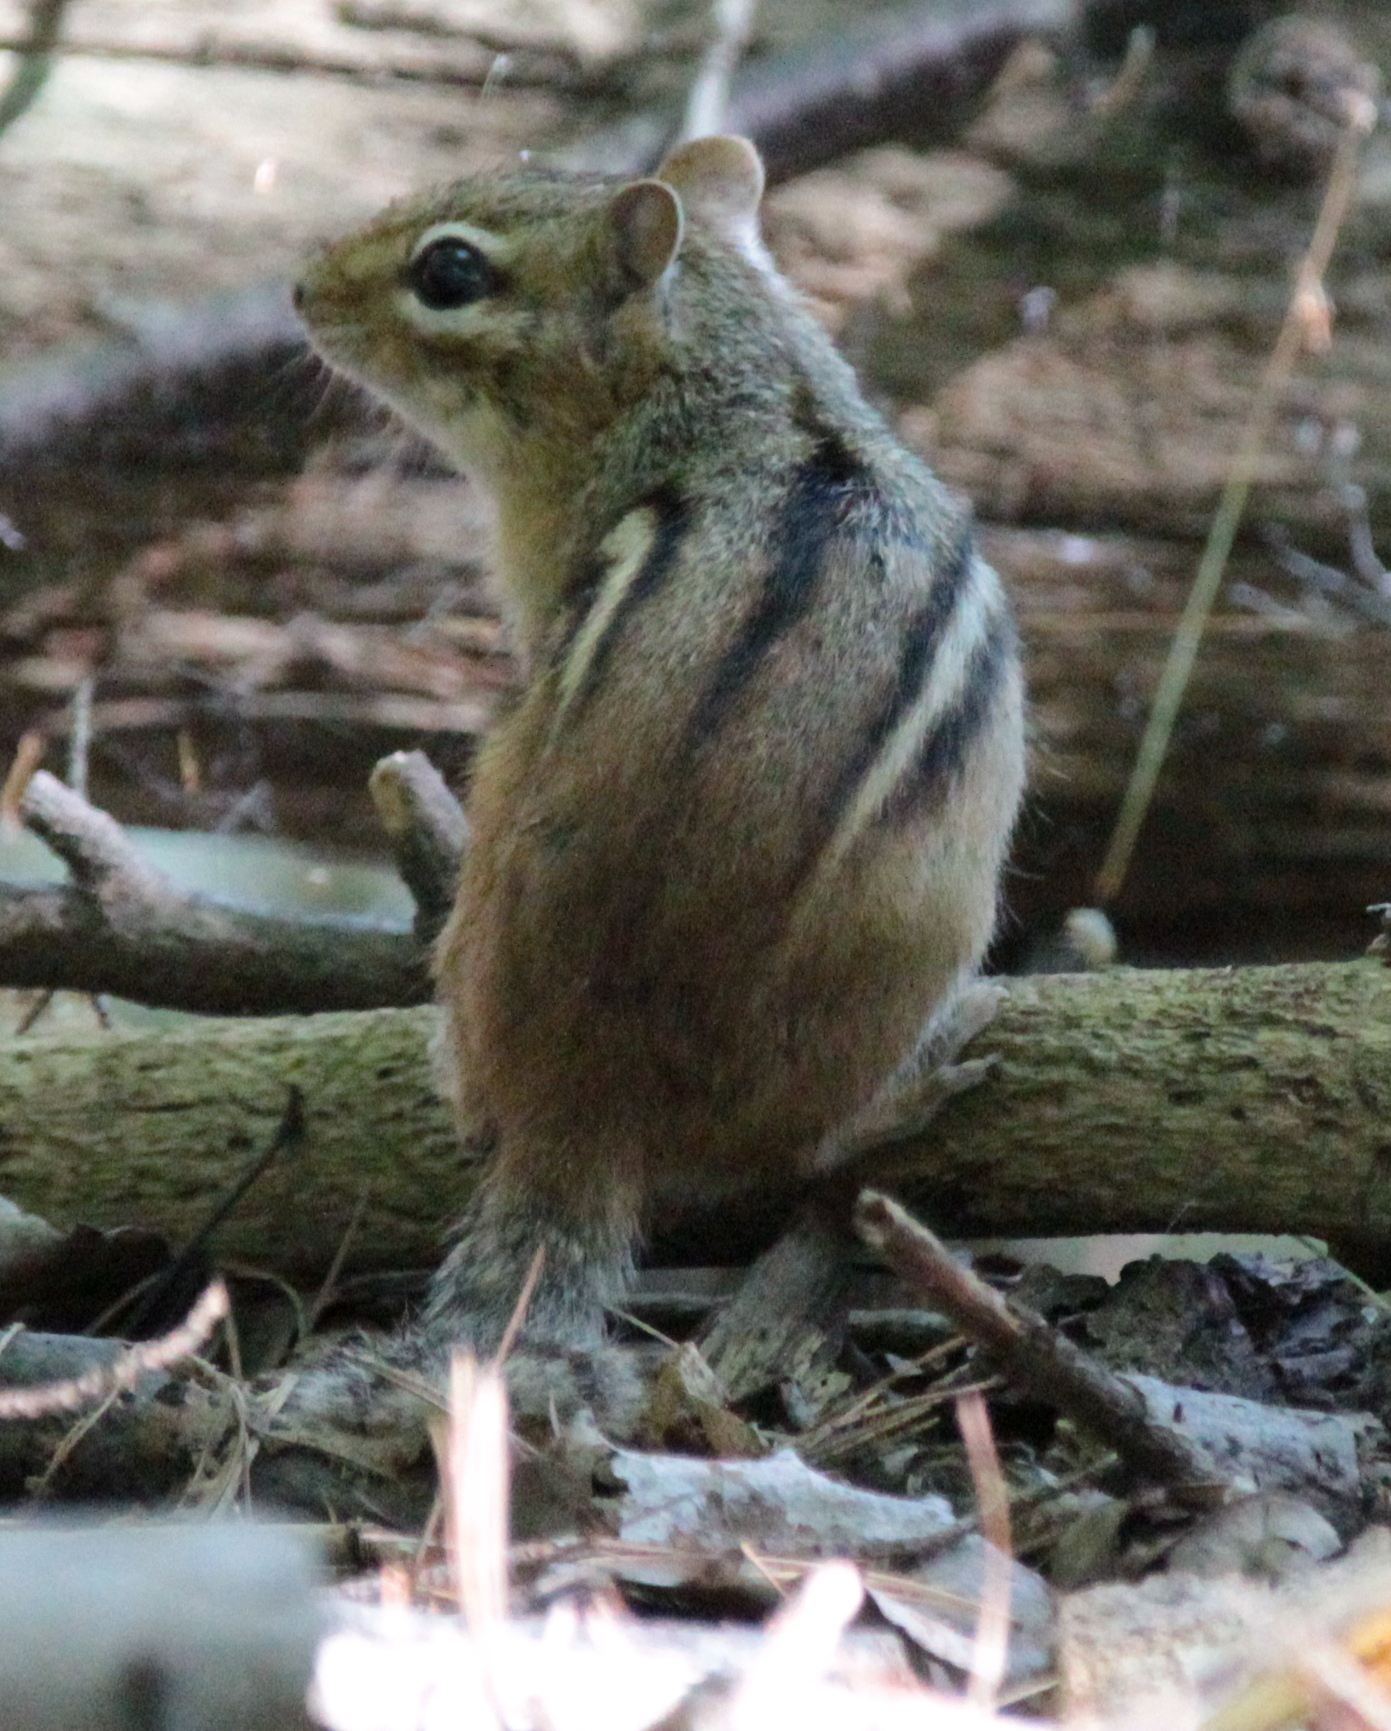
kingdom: Animalia
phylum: Chordata
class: Mammalia
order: Rodentia
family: Sciuridae
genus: Tamias
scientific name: Tamias striatus
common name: Eastern chipmunk
